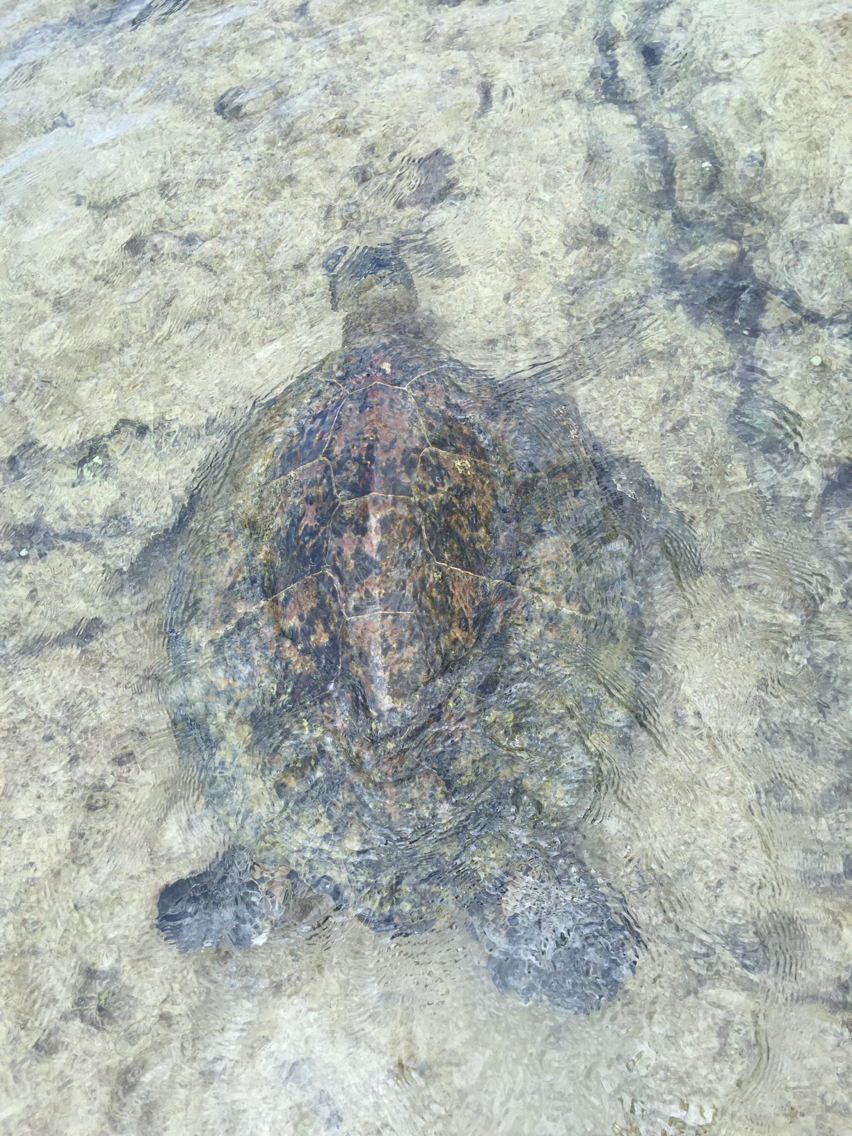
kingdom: Animalia
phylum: Chordata
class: Testudines
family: Cheloniidae
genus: Chelonia
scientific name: Chelonia mydas
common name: Green turtle
